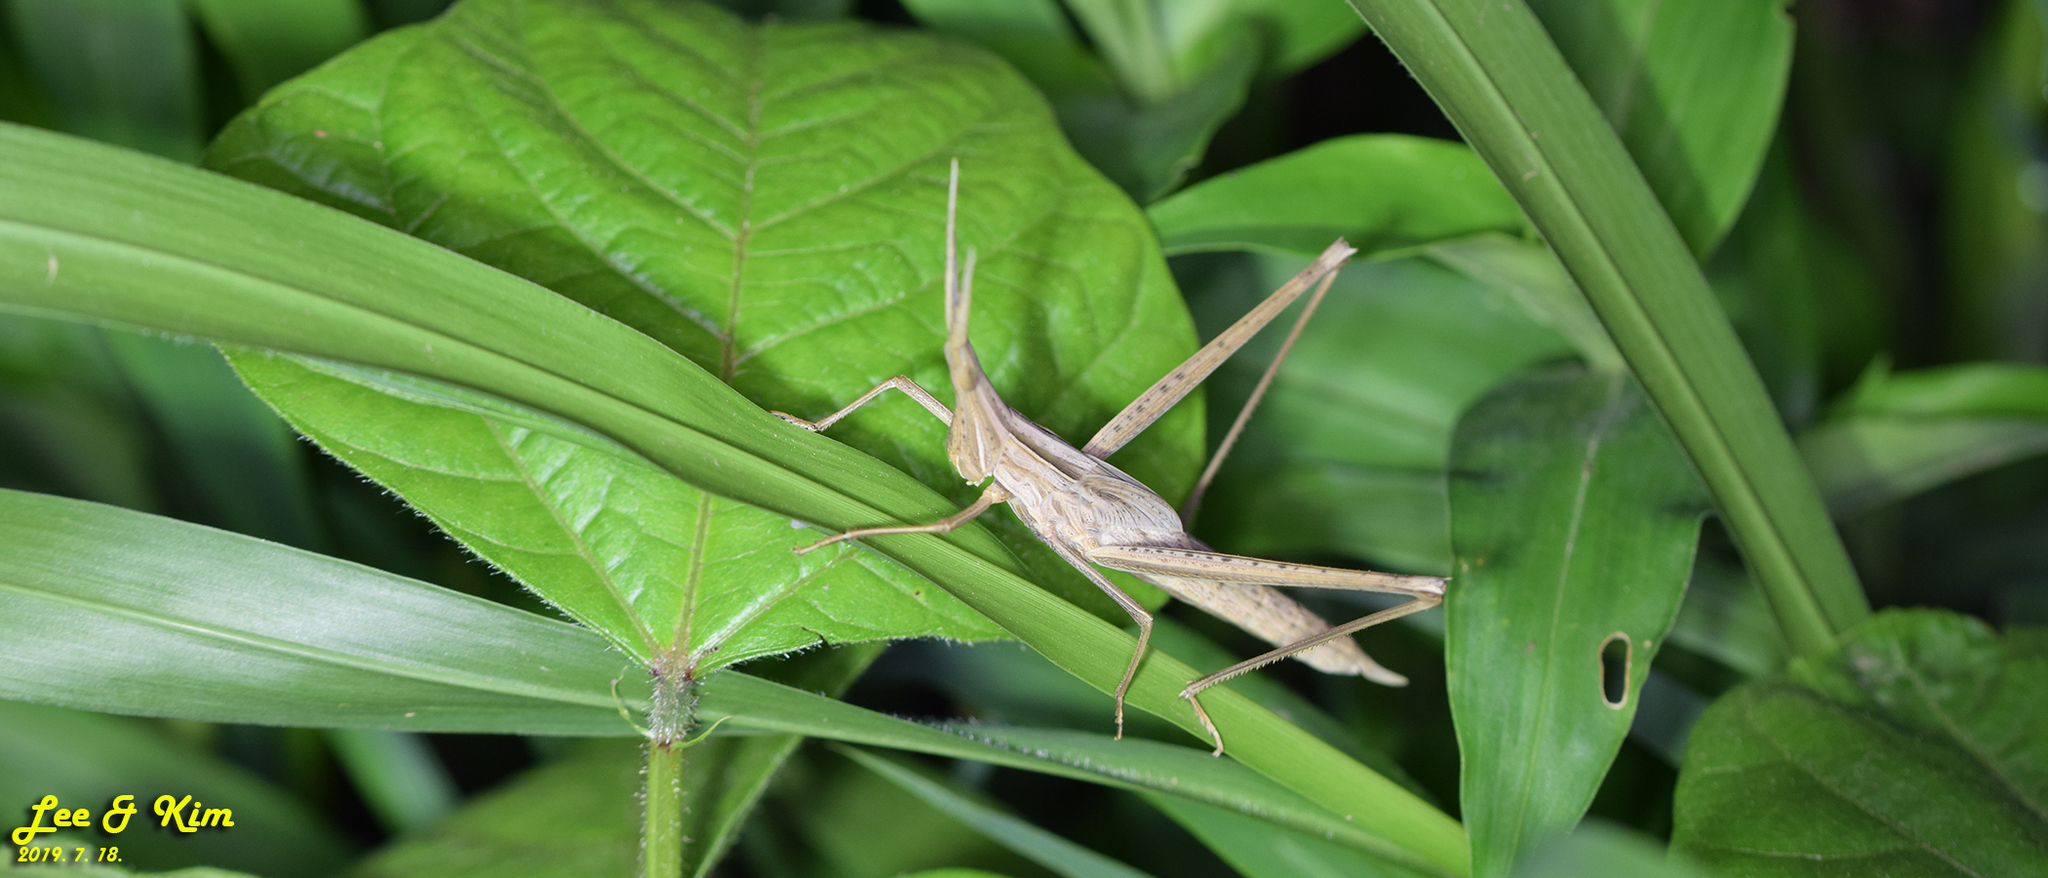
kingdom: Animalia
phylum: Arthropoda
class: Insecta
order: Orthoptera
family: Acrididae
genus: Acrida
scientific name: Acrida cinerea
